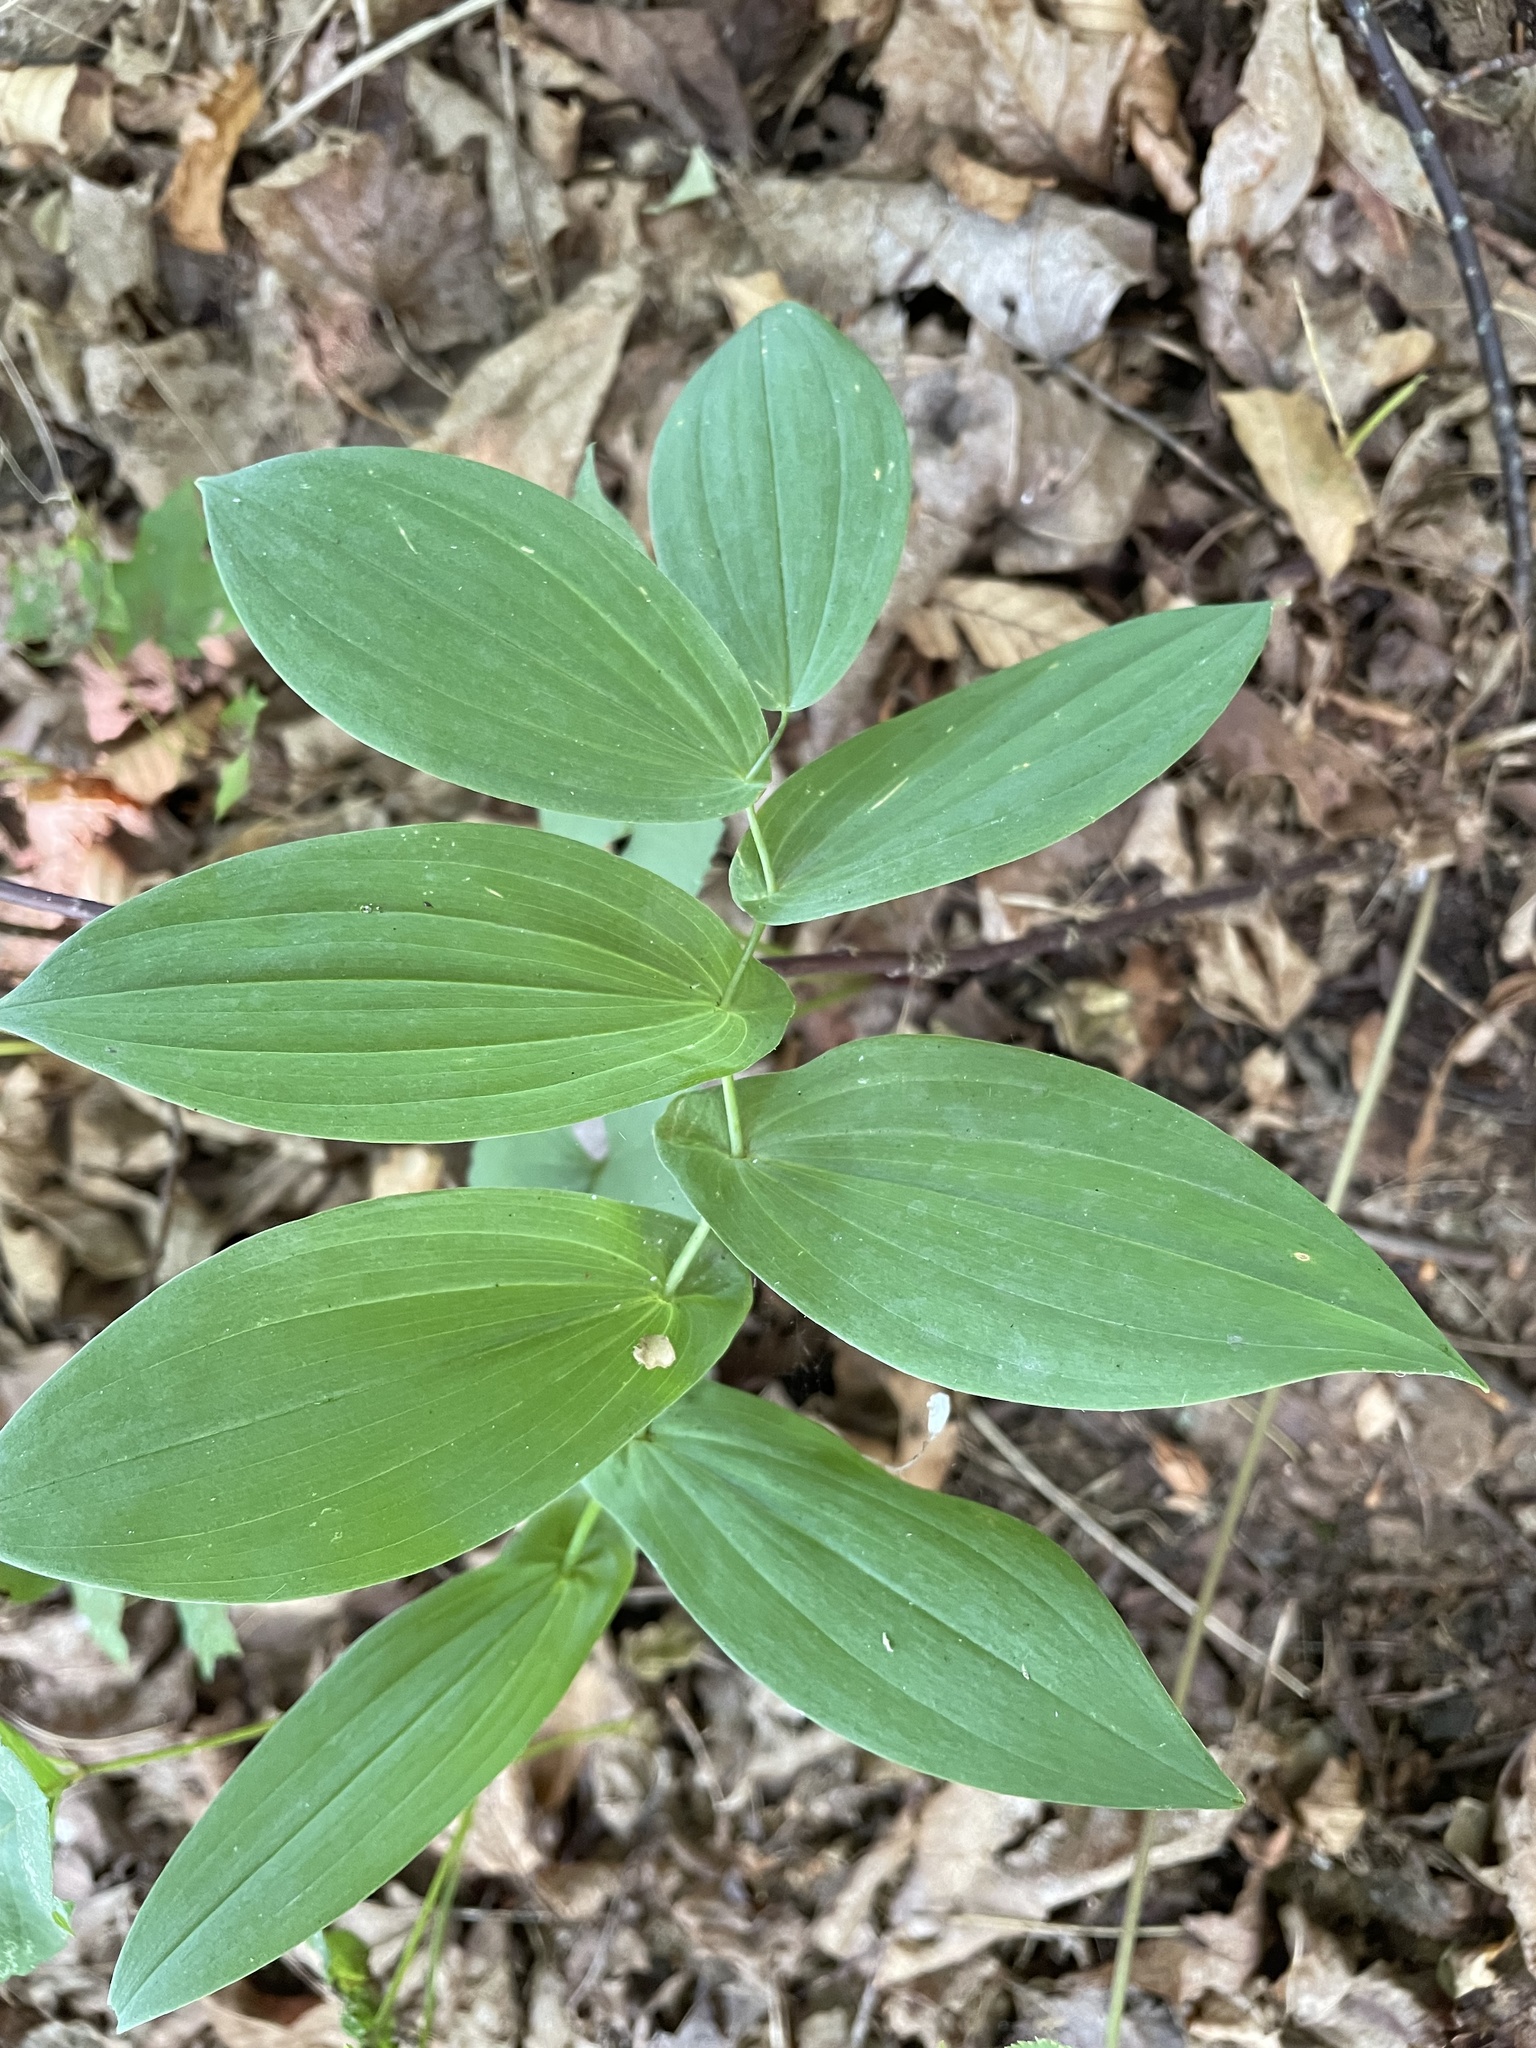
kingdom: Plantae
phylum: Tracheophyta
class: Liliopsida
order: Liliales
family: Colchicaceae
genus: Uvularia
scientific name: Uvularia grandiflora
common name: Bellwort
